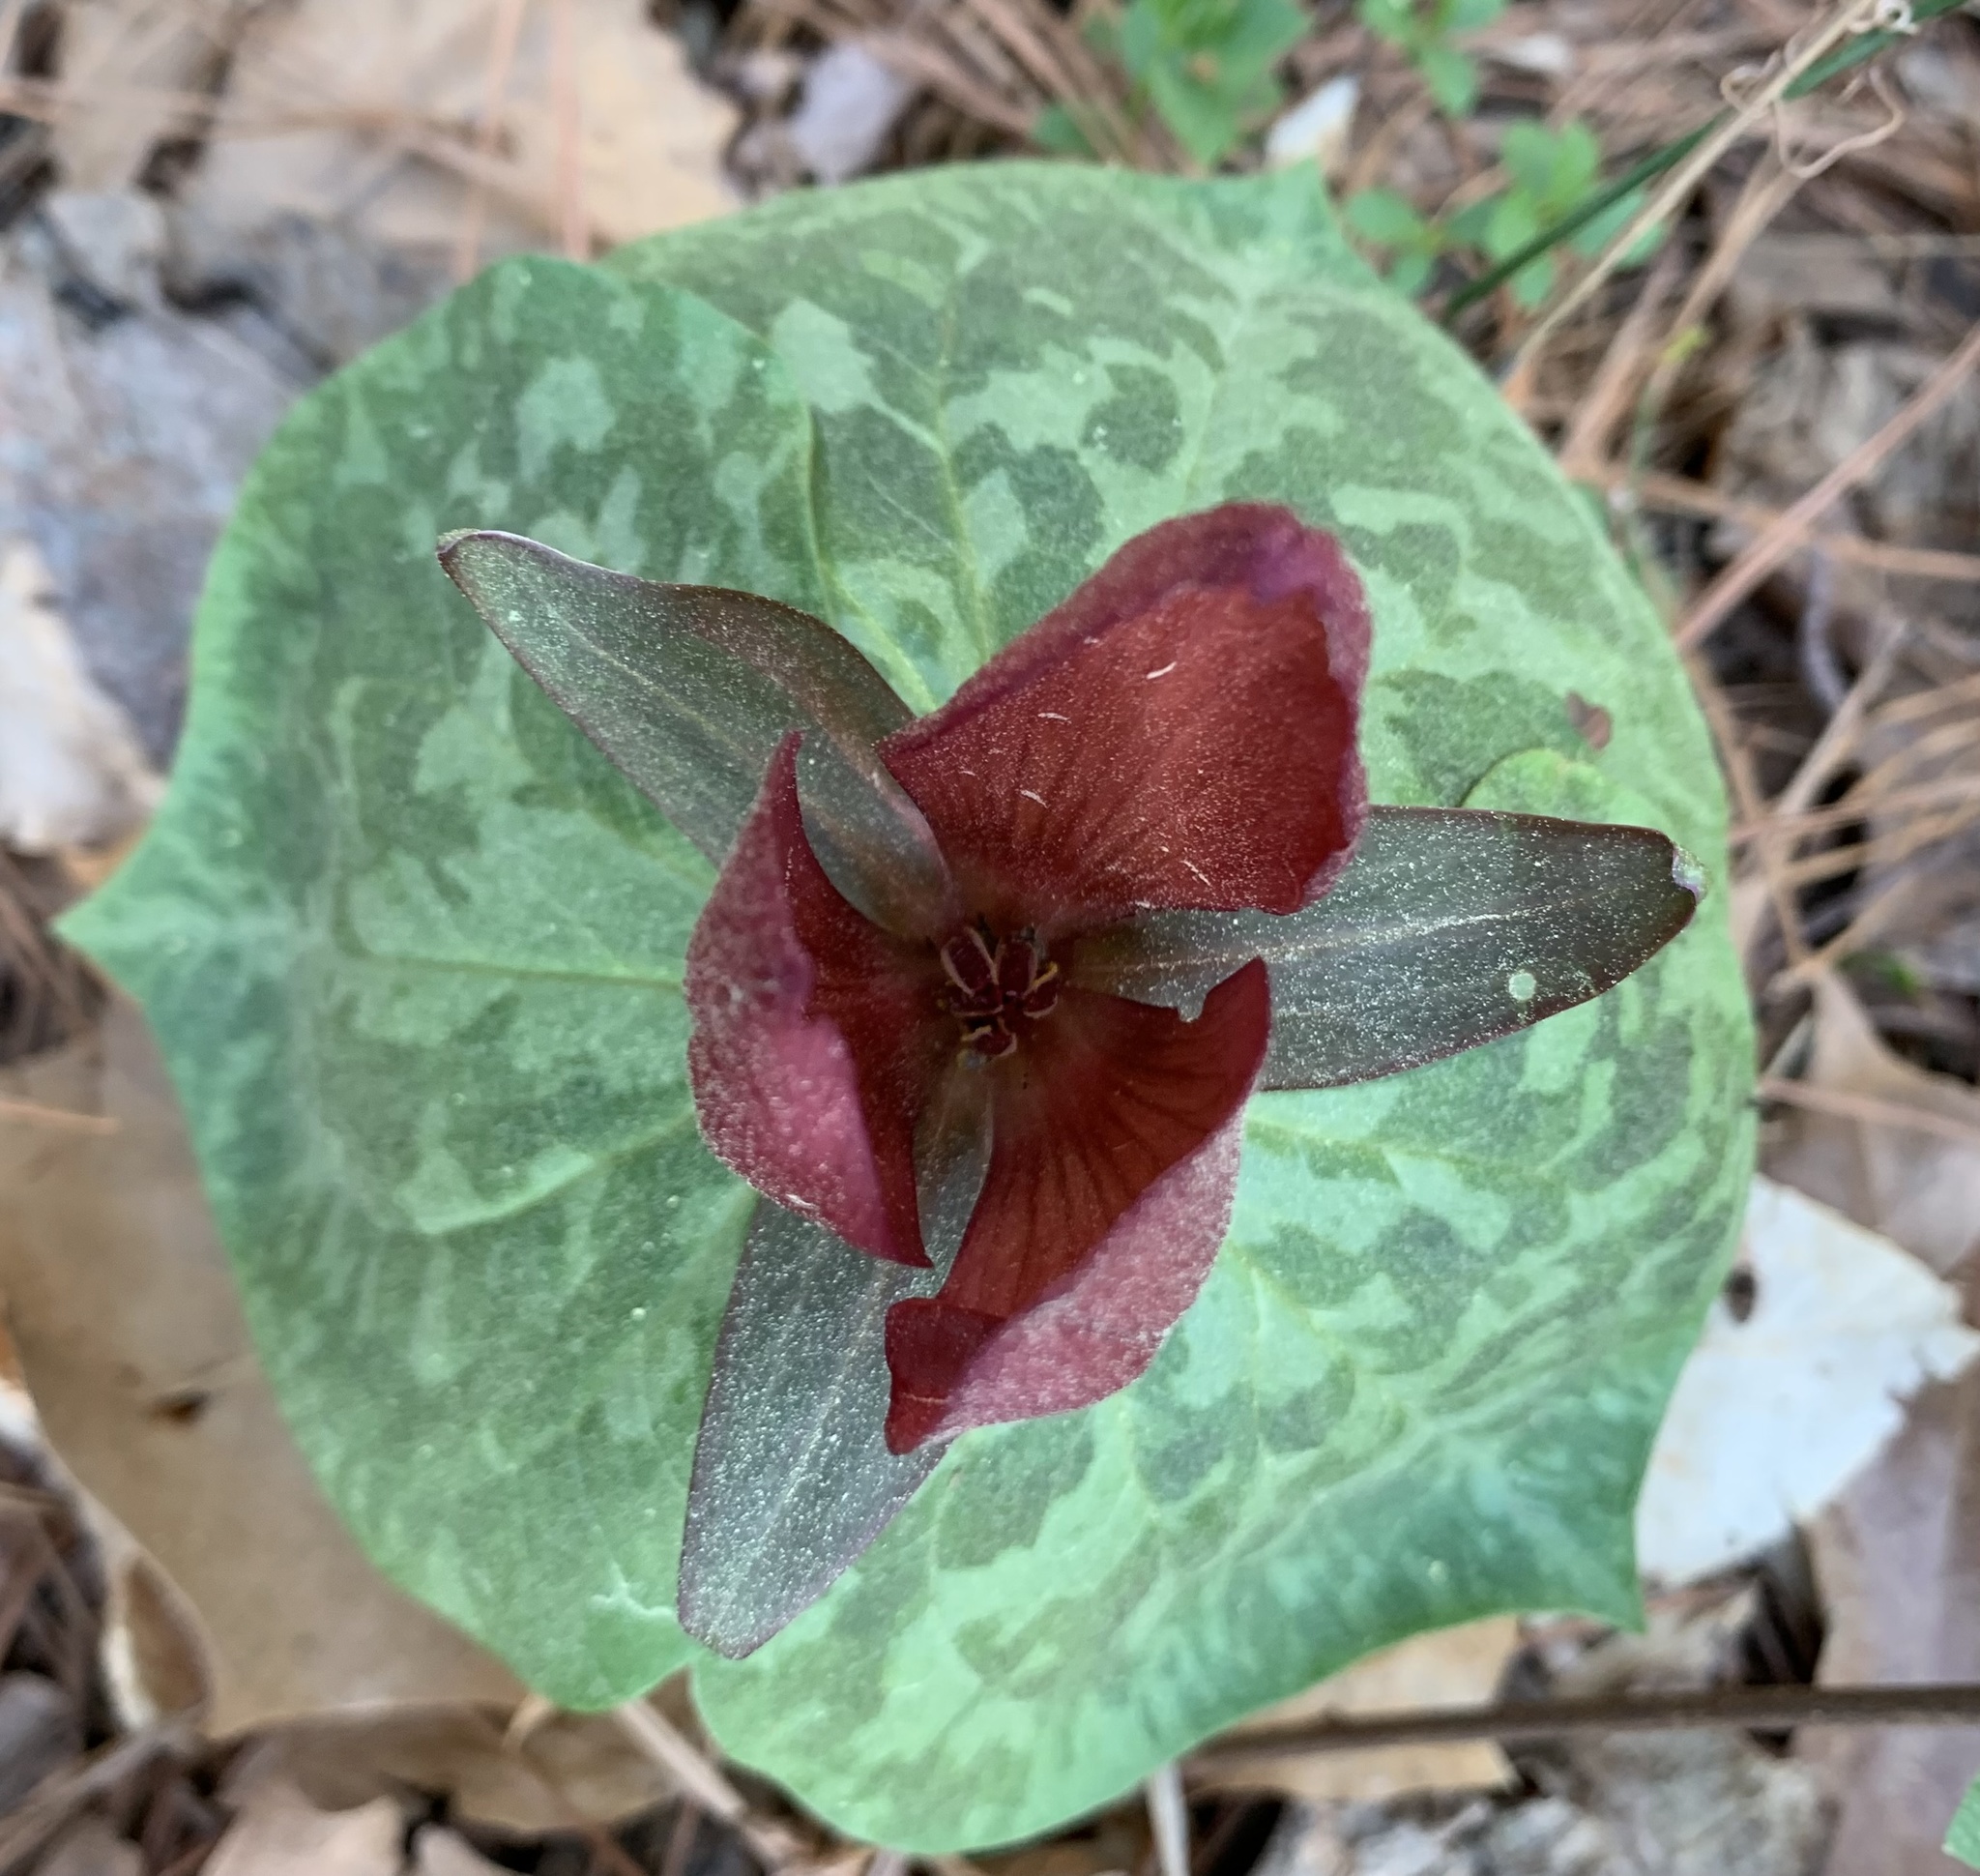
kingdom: Plantae
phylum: Tracheophyta
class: Liliopsida
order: Liliales
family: Melanthiaceae
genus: Trillium
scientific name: Trillium cuneatum
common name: Cuneate trillium
